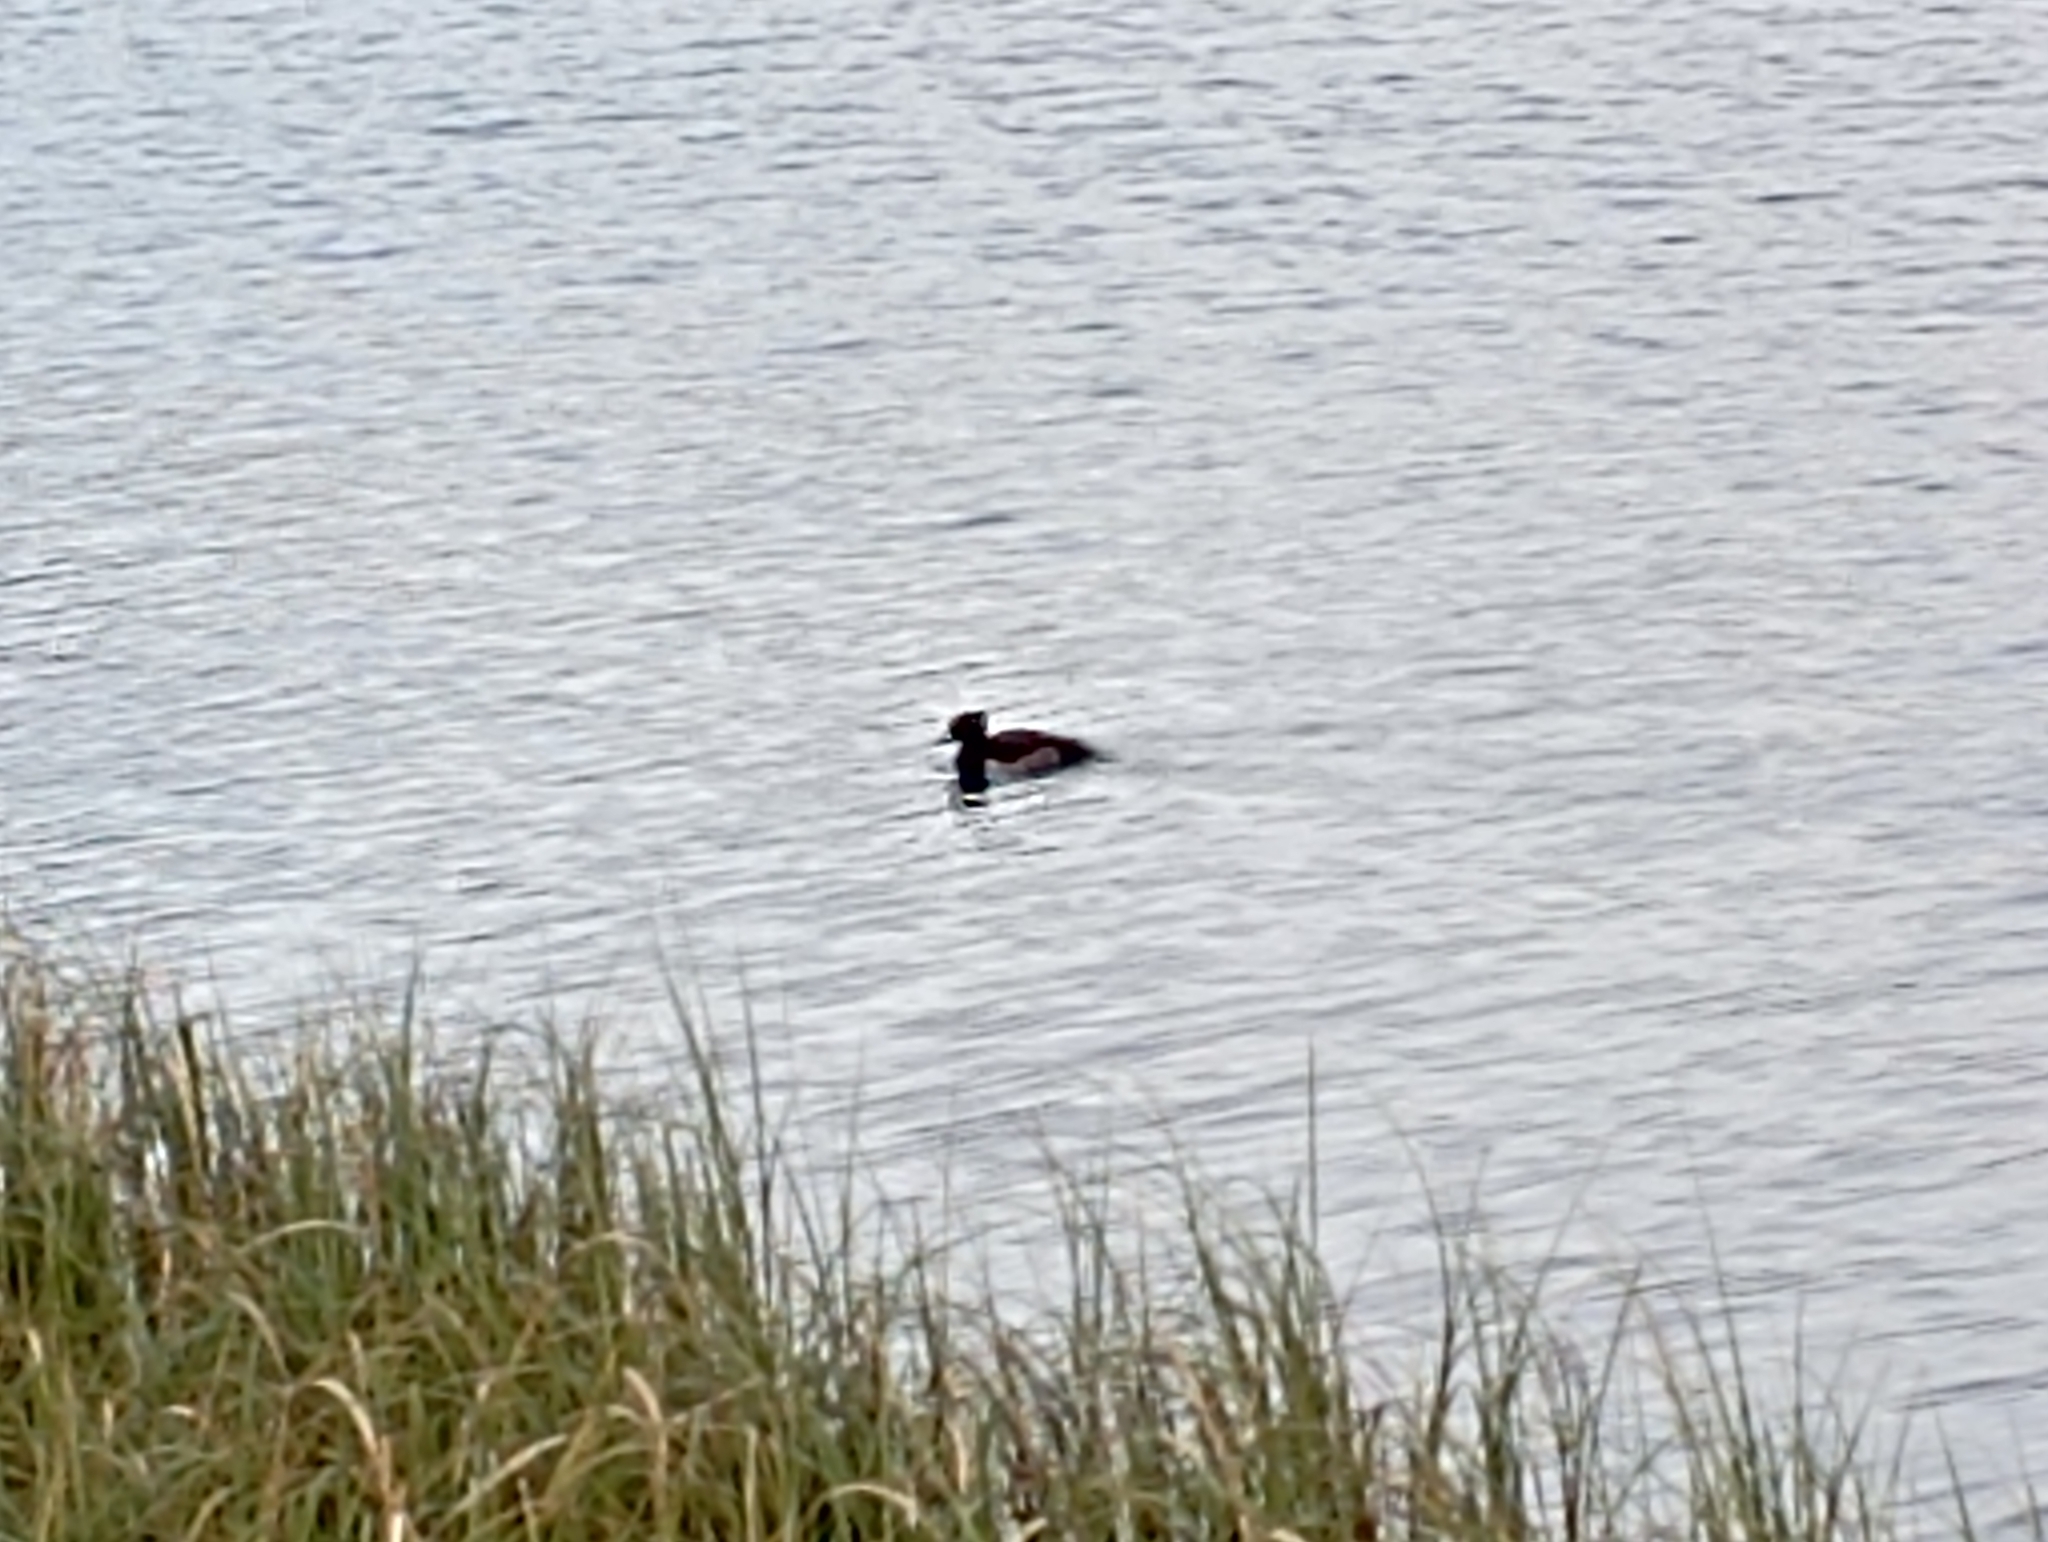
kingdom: Animalia
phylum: Chordata
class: Aves
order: Anseriformes
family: Anatidae
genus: Aythya
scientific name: Aythya fuligula
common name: Tufted duck
